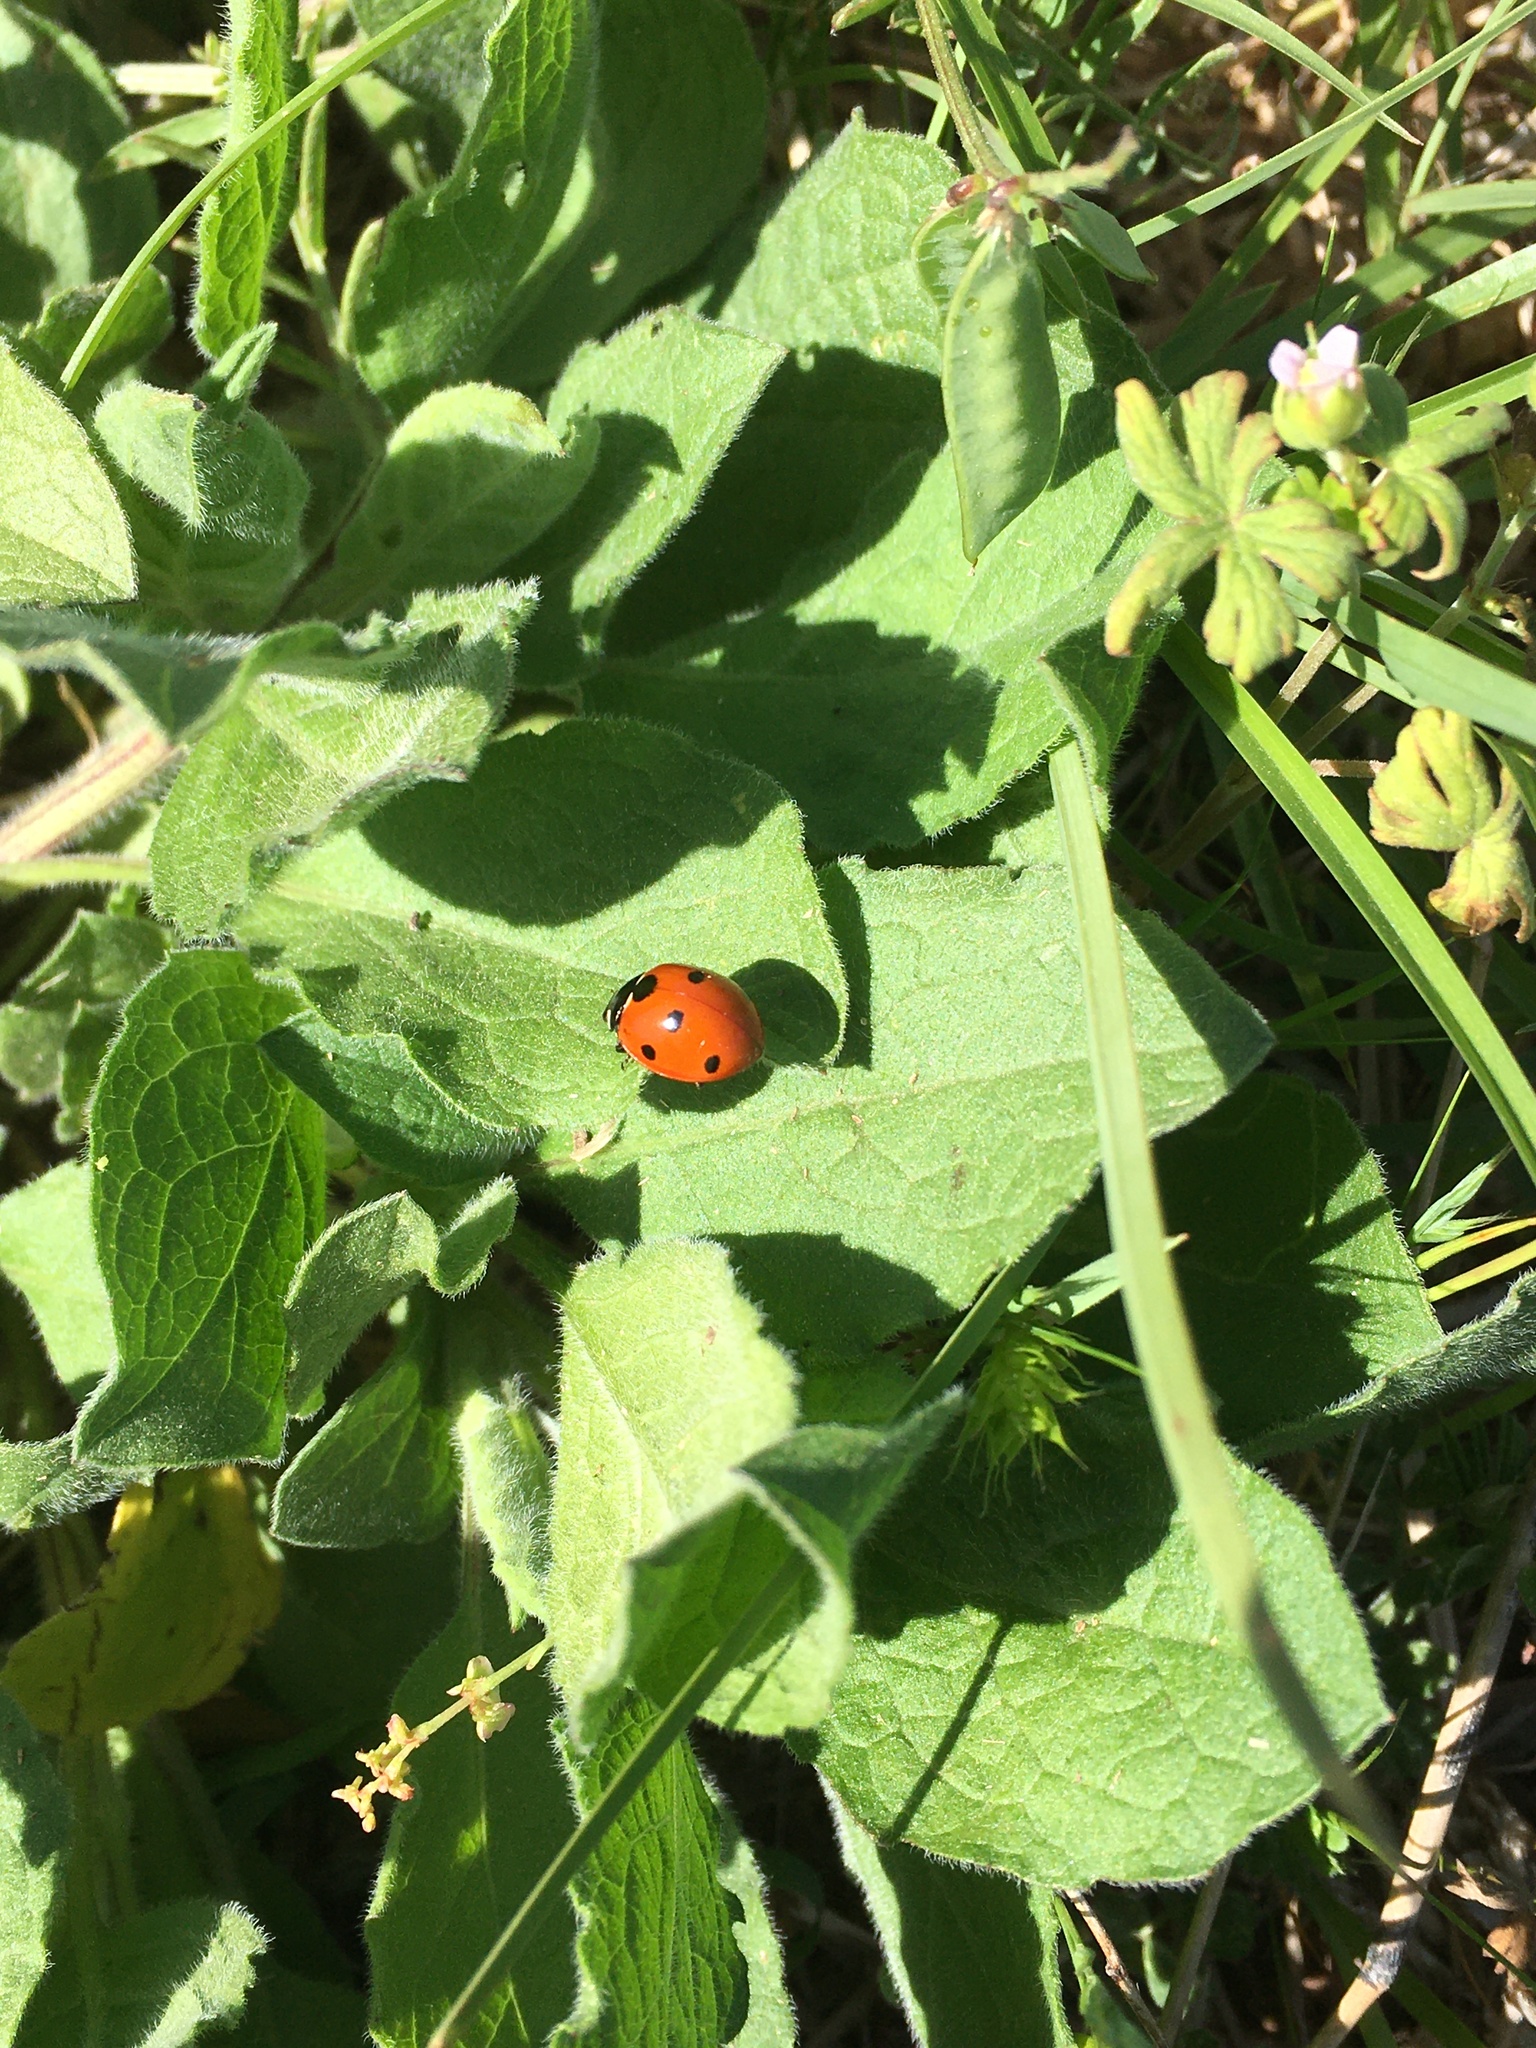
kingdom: Animalia
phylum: Arthropoda
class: Insecta
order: Coleoptera
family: Coccinellidae
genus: Coccinella
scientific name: Coccinella septempunctata
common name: Sevenspotted lady beetle
